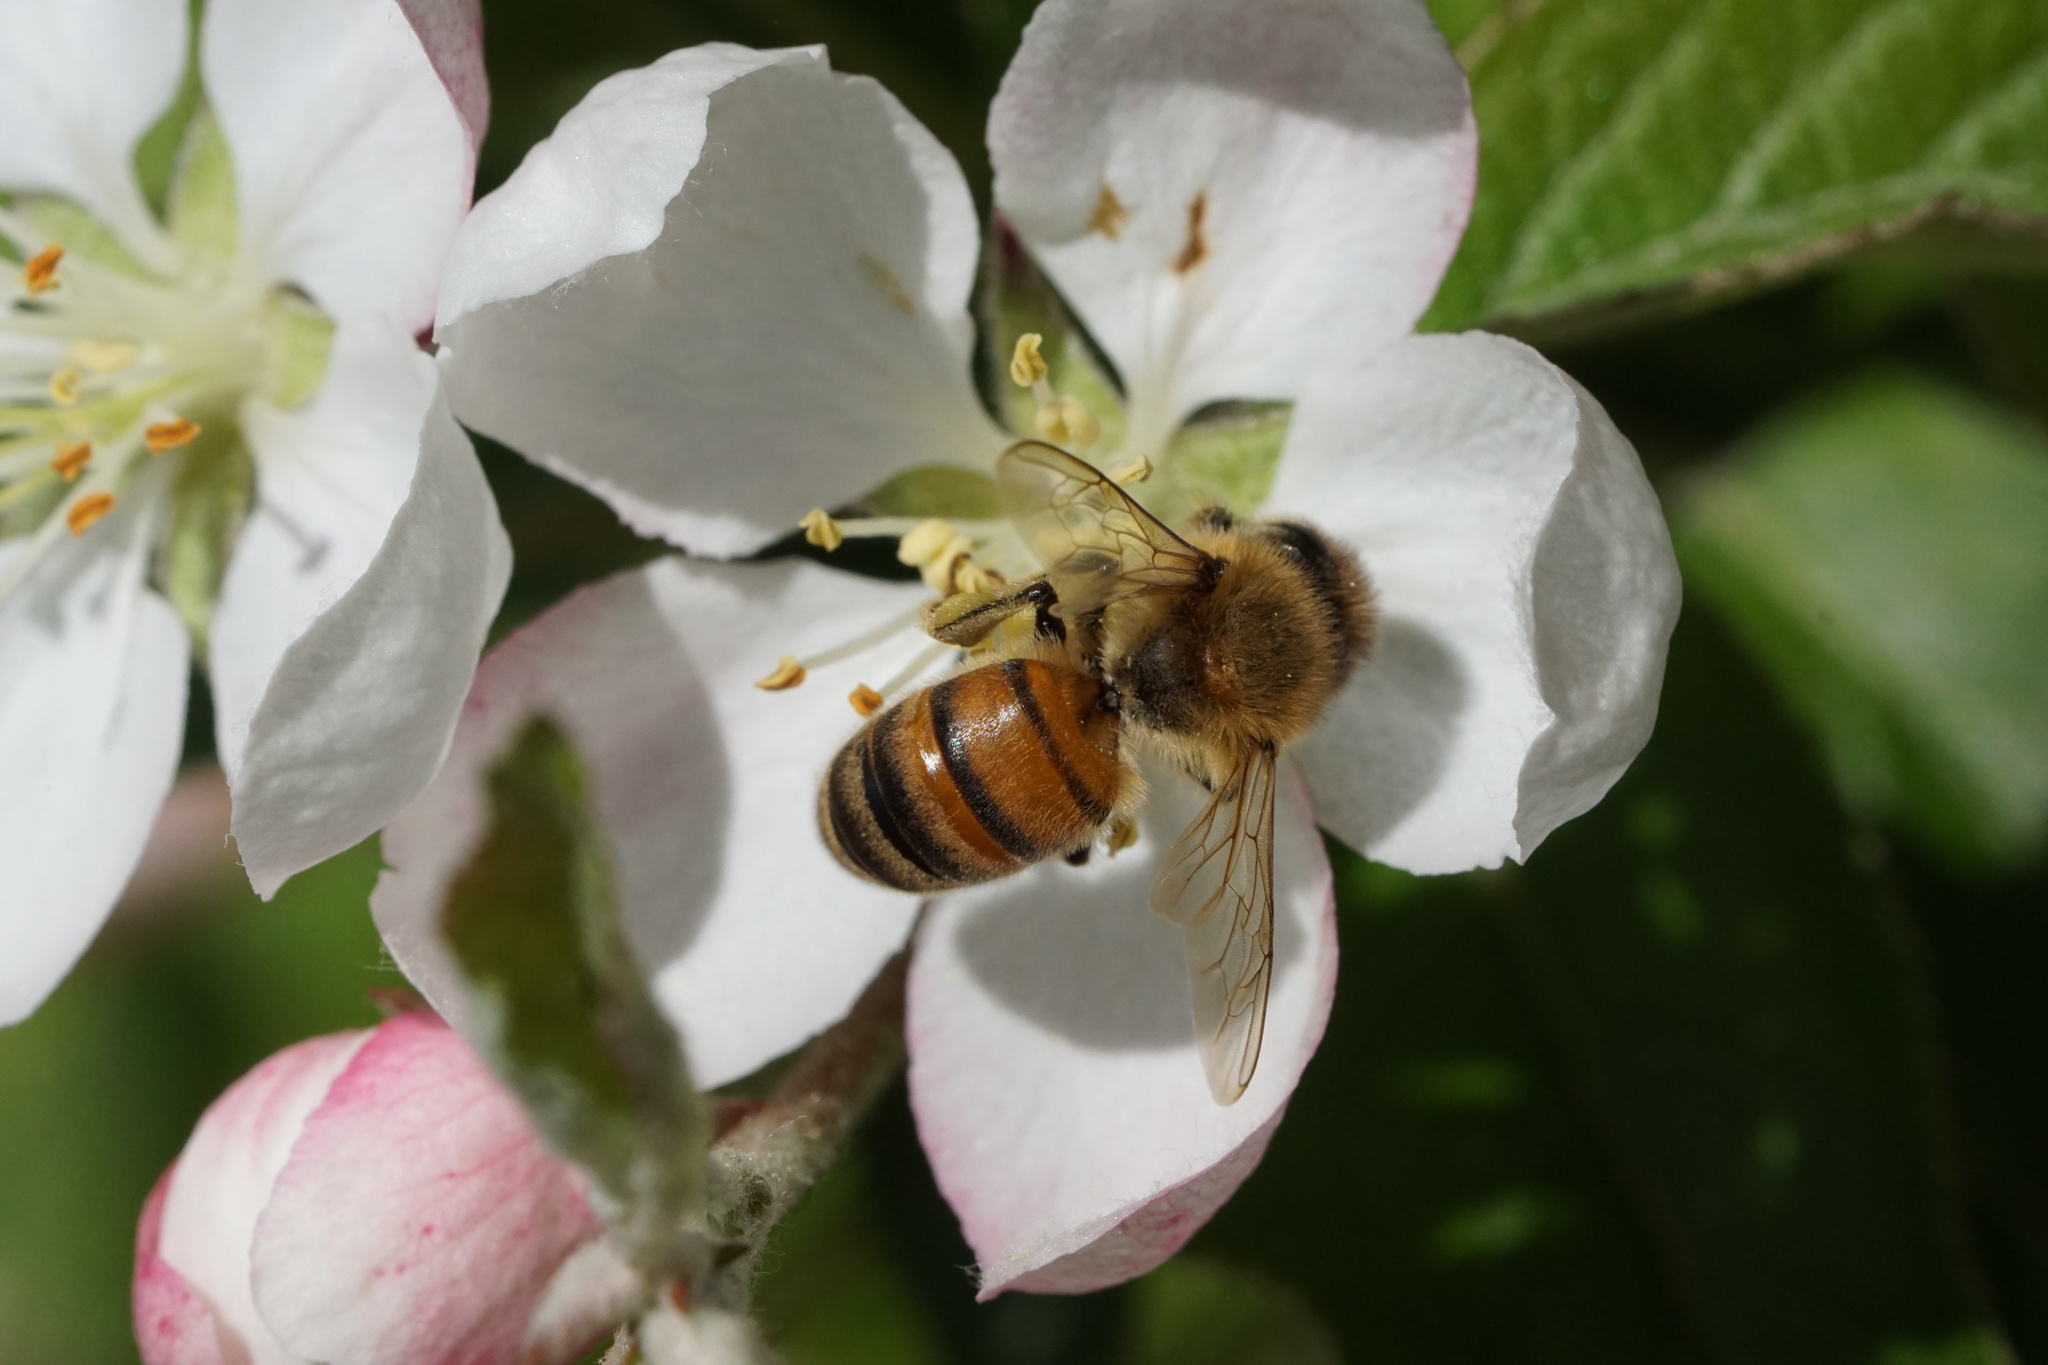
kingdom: Animalia
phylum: Arthropoda
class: Insecta
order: Hymenoptera
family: Apidae
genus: Apis
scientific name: Apis mellifera
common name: Honey bee
